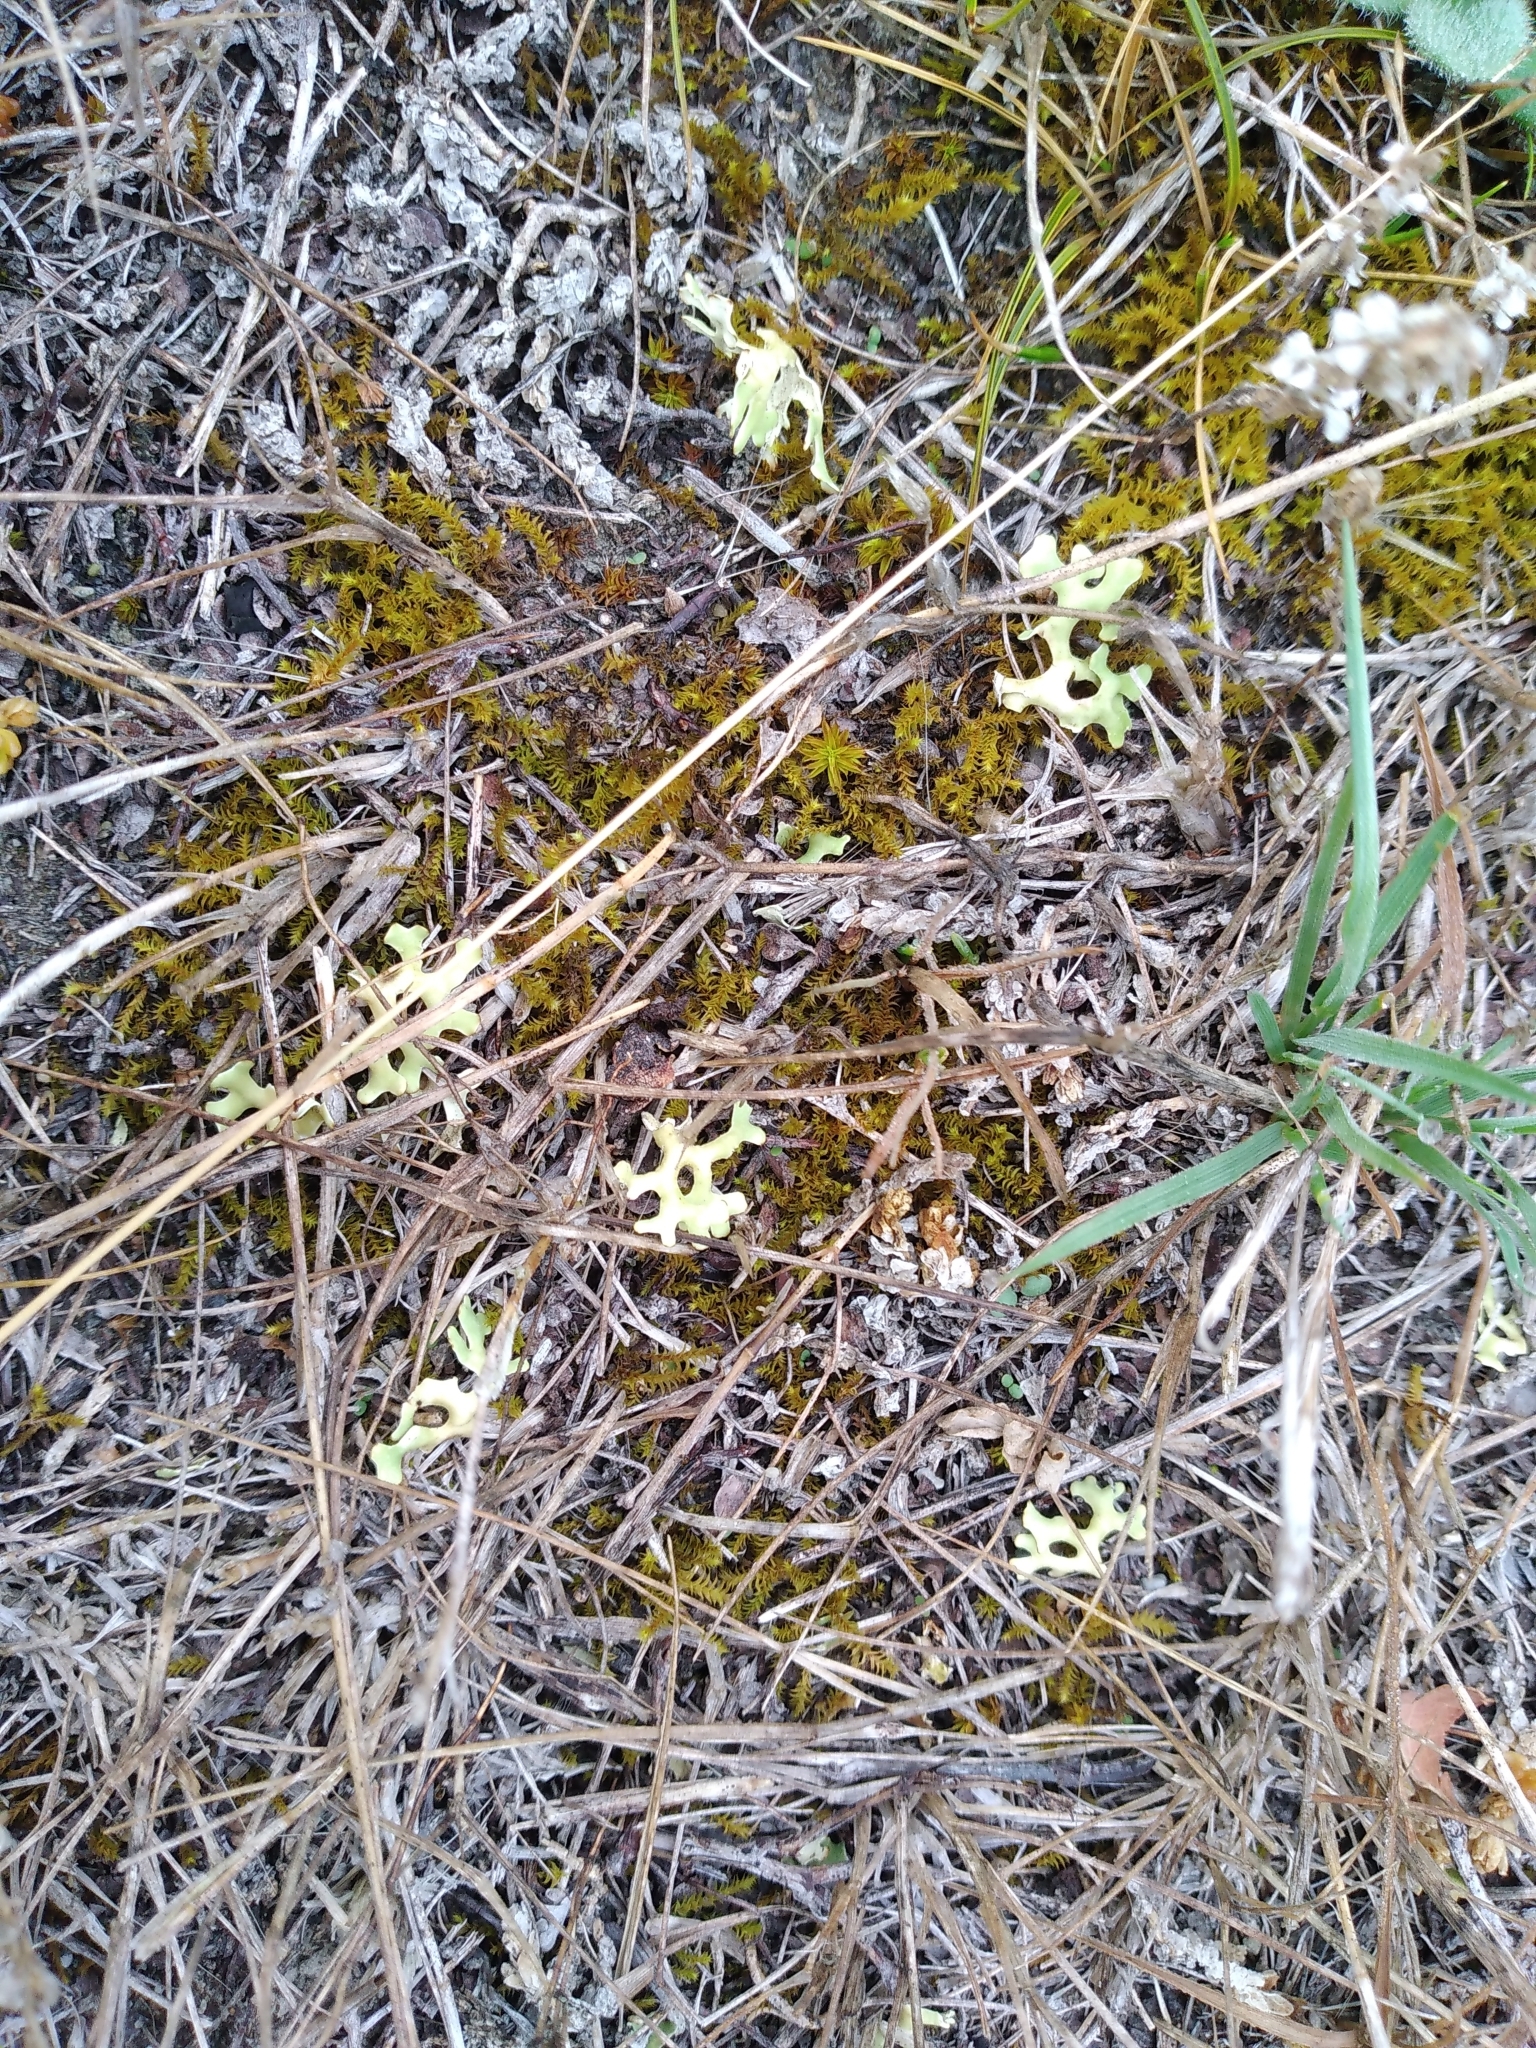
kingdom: Fungi
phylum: Ascomycota
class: Lecanoromycetes
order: Lecanorales
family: Parmeliaceae
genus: Xanthoparmelia
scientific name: Xanthoparmelia semiviridis
